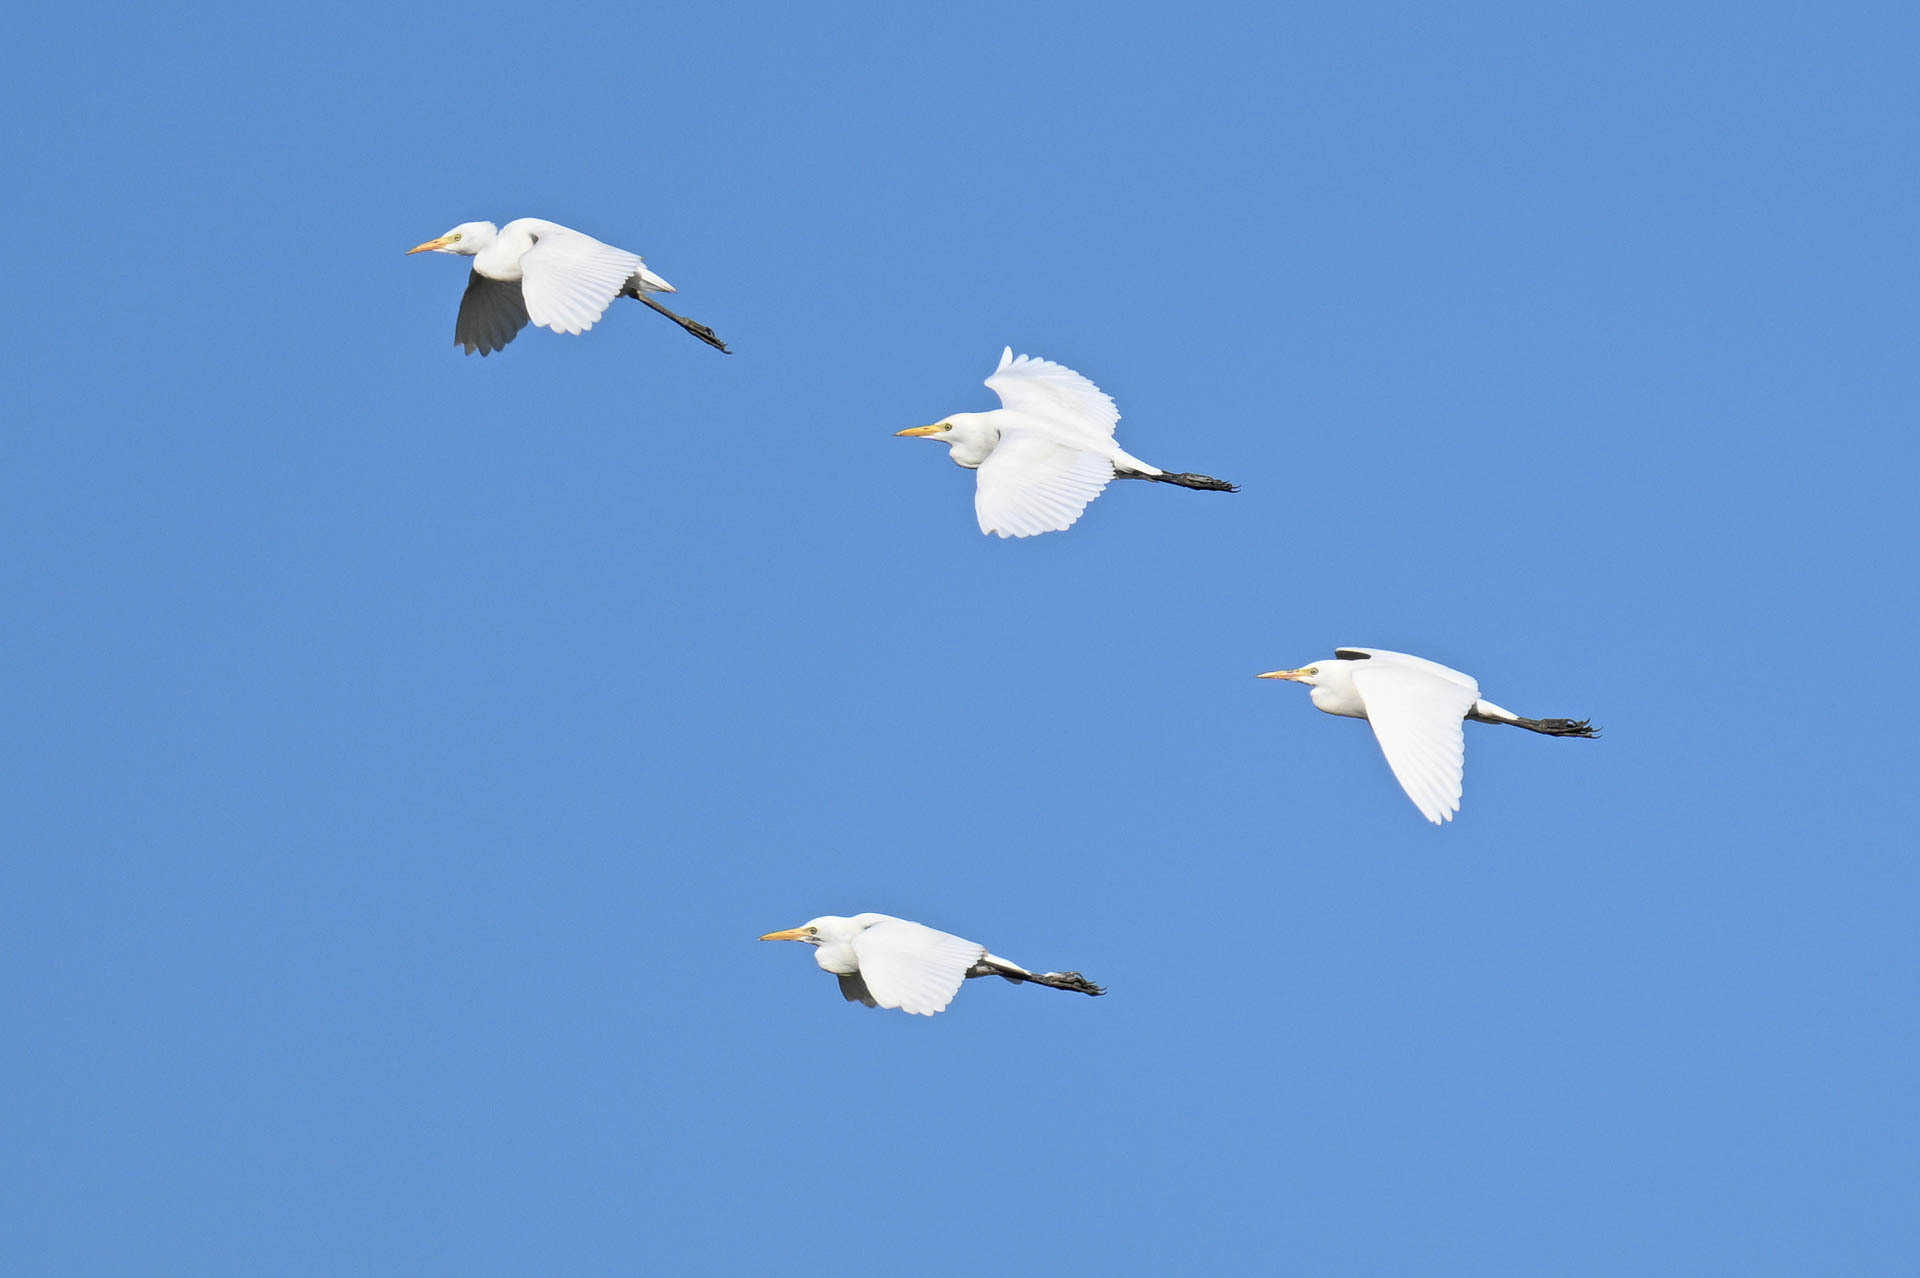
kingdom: Animalia
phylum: Chordata
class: Aves
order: Pelecaniformes
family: Ardeidae
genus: Bubulcus
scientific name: Bubulcus ibis
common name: Cattle egret
